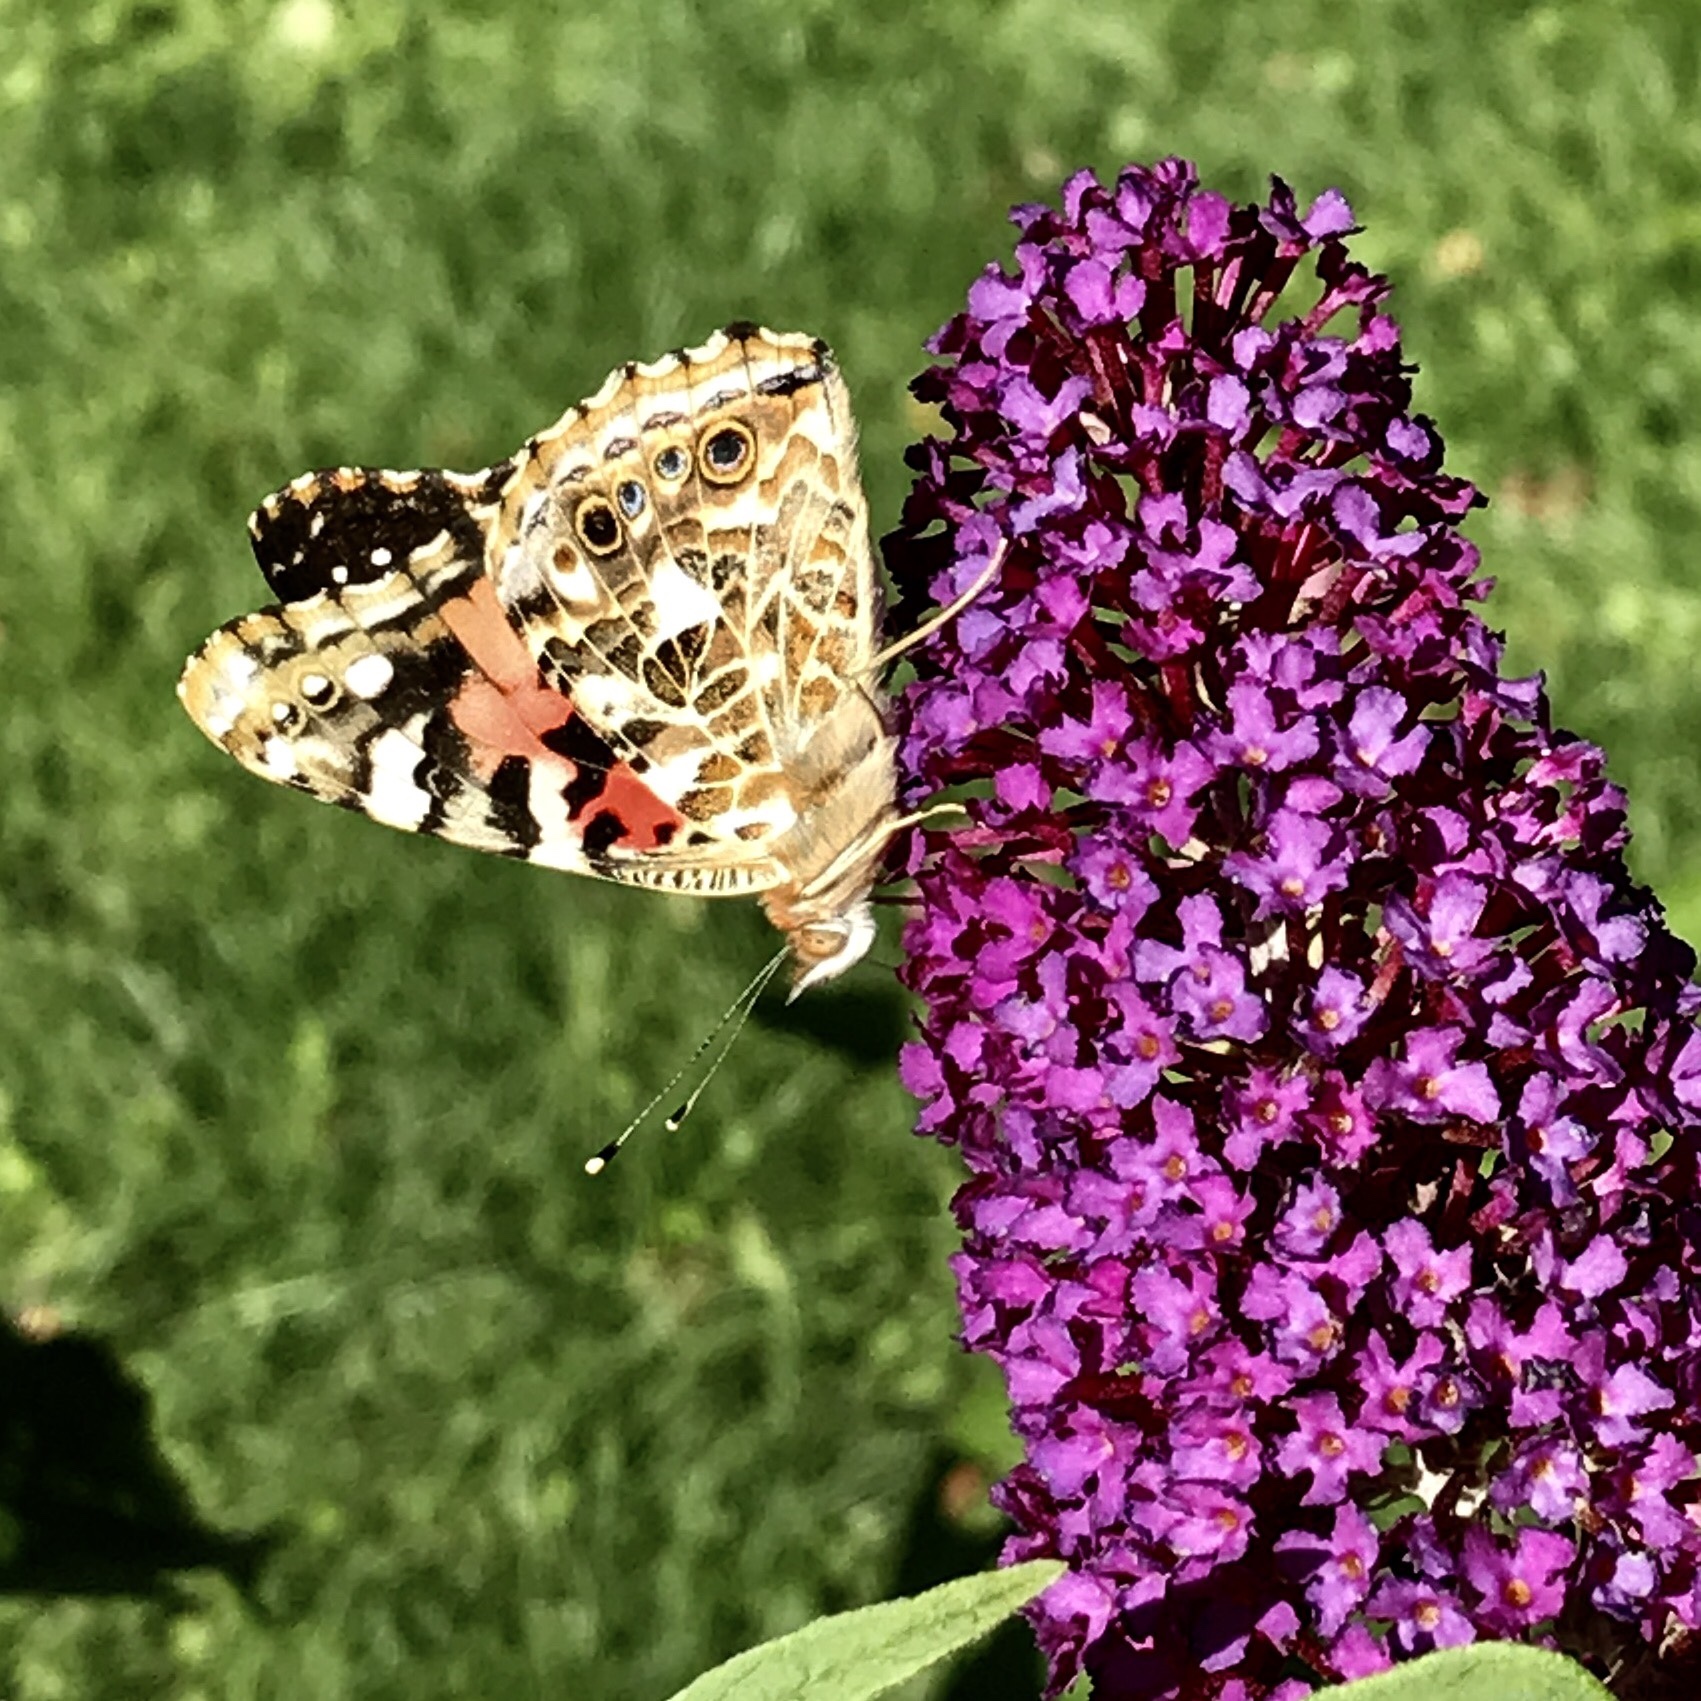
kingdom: Animalia
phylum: Arthropoda
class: Insecta
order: Lepidoptera
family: Nymphalidae
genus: Vanessa
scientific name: Vanessa cardui
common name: Painted lady
